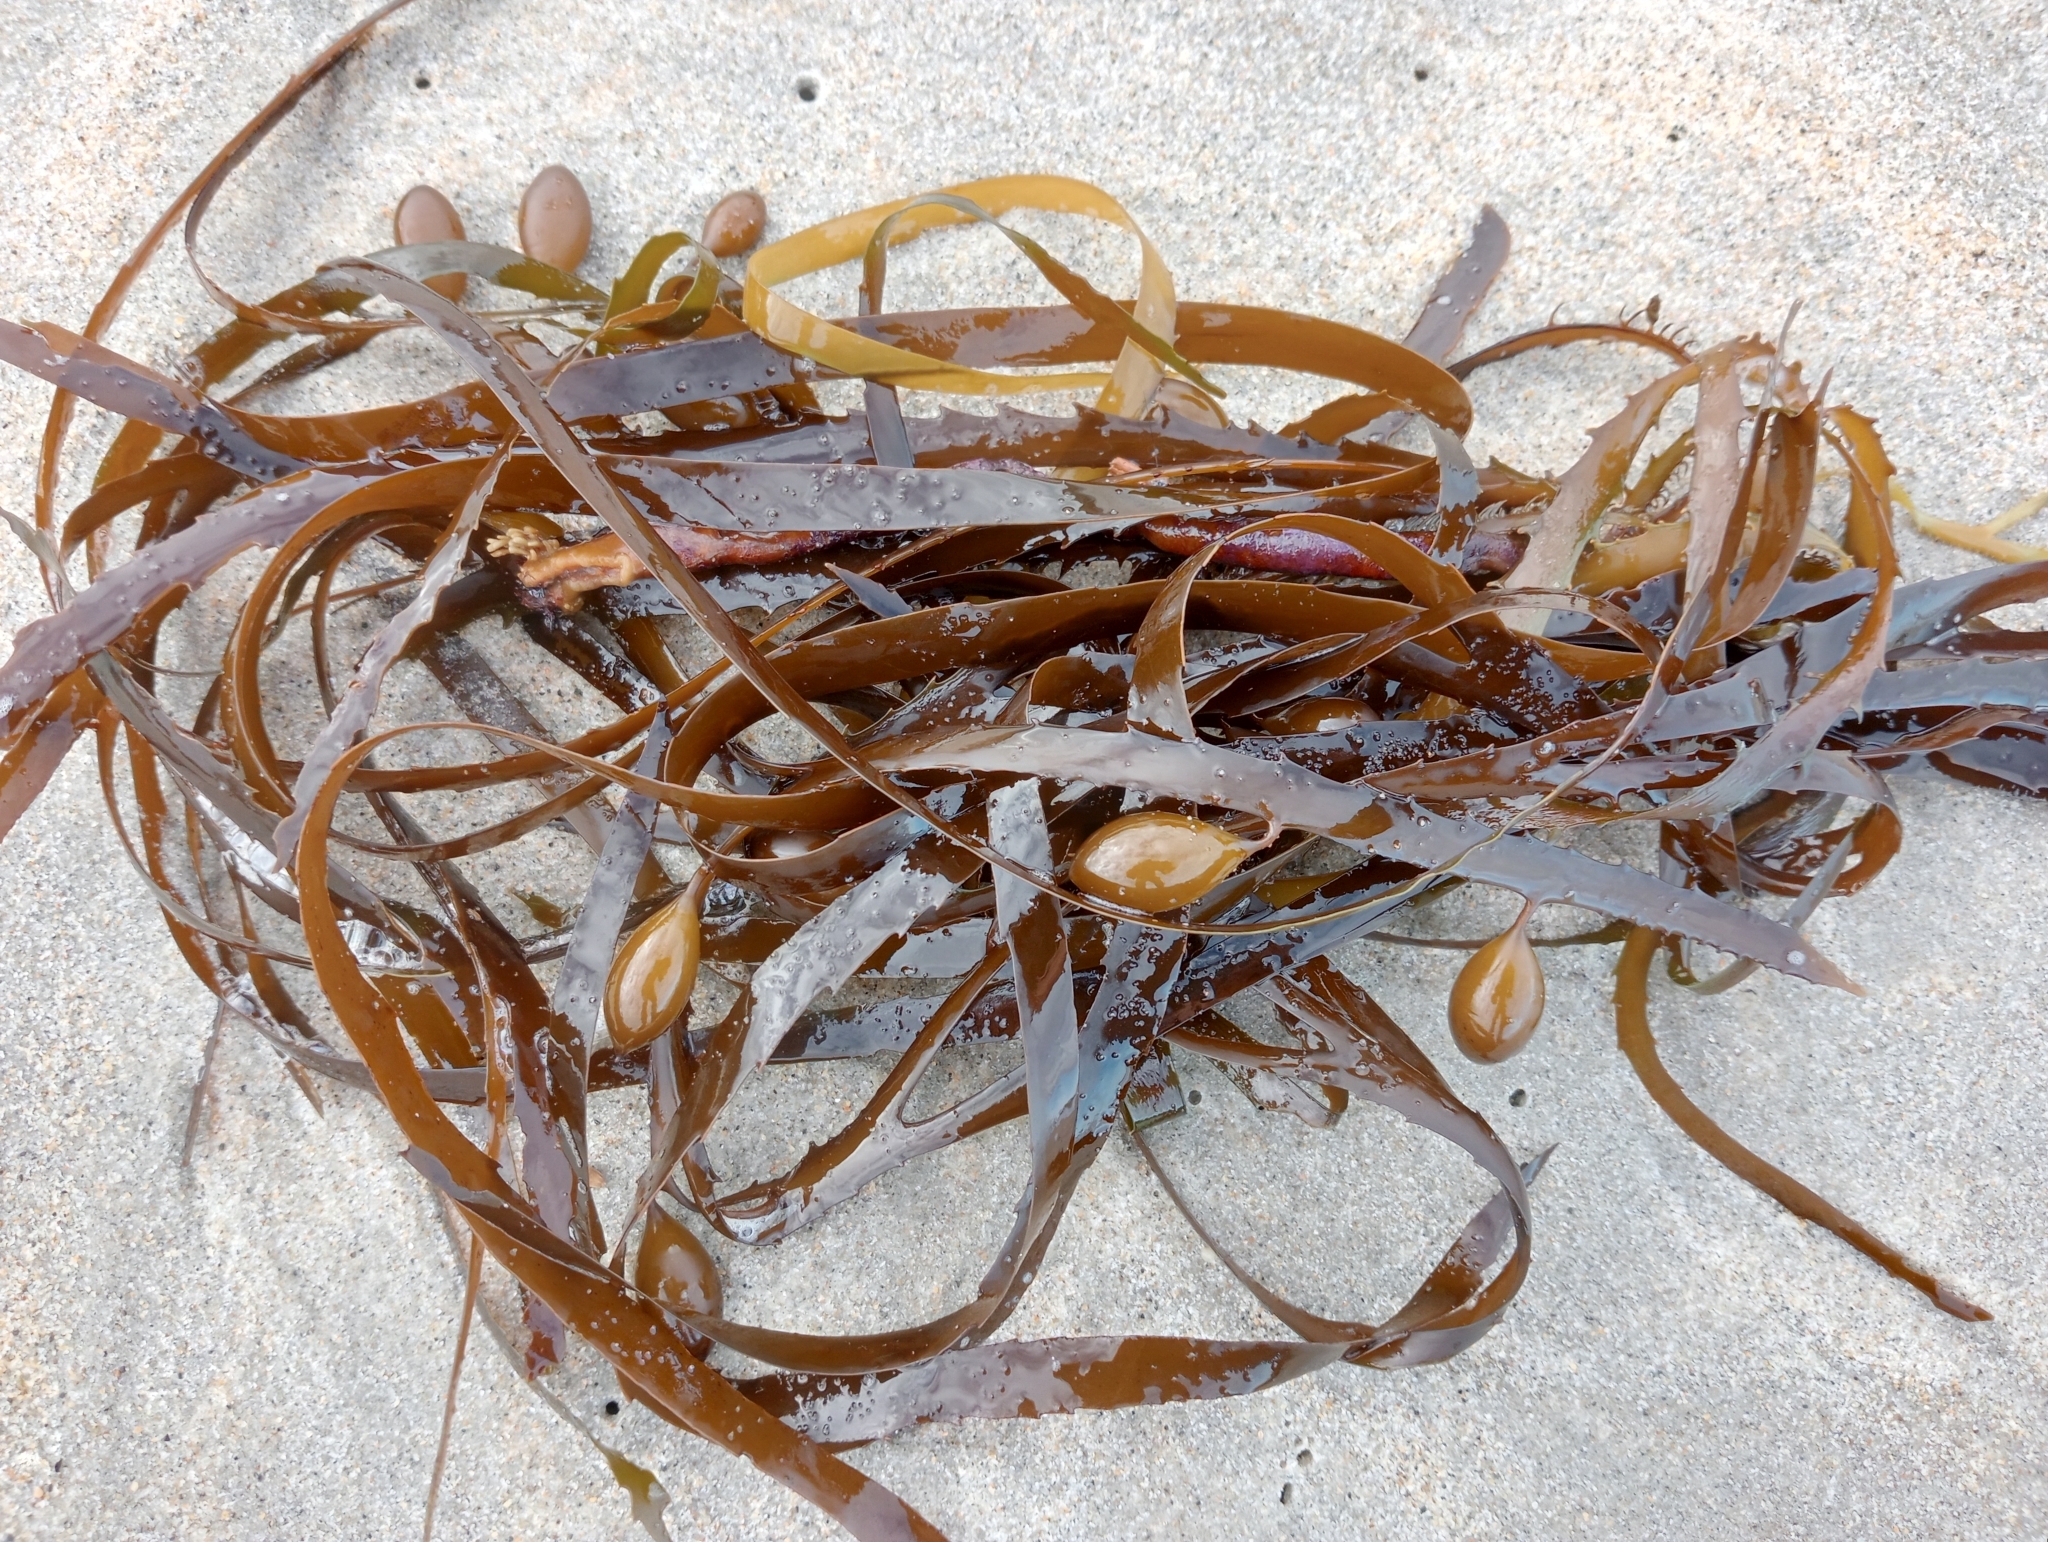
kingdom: Chromista
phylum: Ochrophyta
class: Phaeophyceae
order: Fucales
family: Seirococcaceae
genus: Marginariella
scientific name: Marginariella boryana
